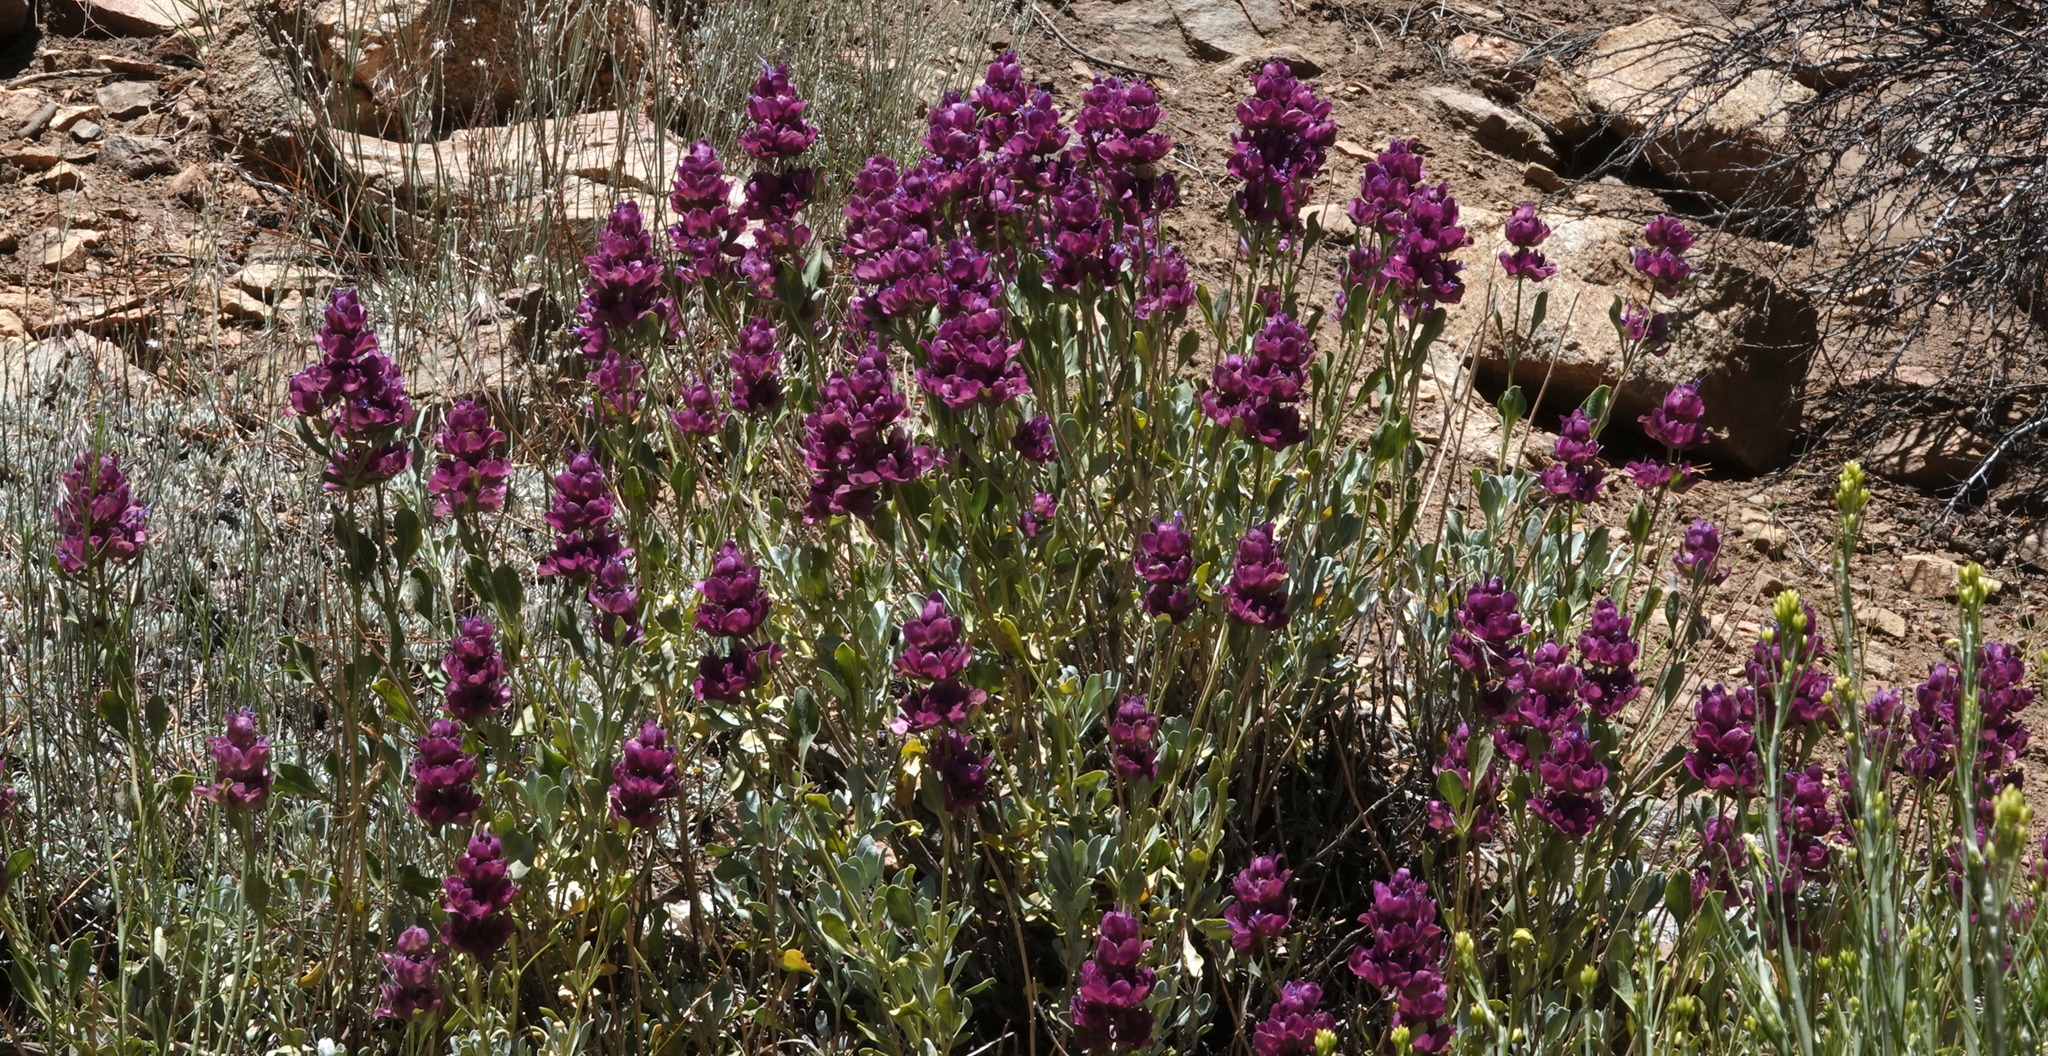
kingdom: Plantae
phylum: Tracheophyta
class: Magnoliopsida
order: Lamiales
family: Lamiaceae
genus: Salvia
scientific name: Salvia pachyphylla
